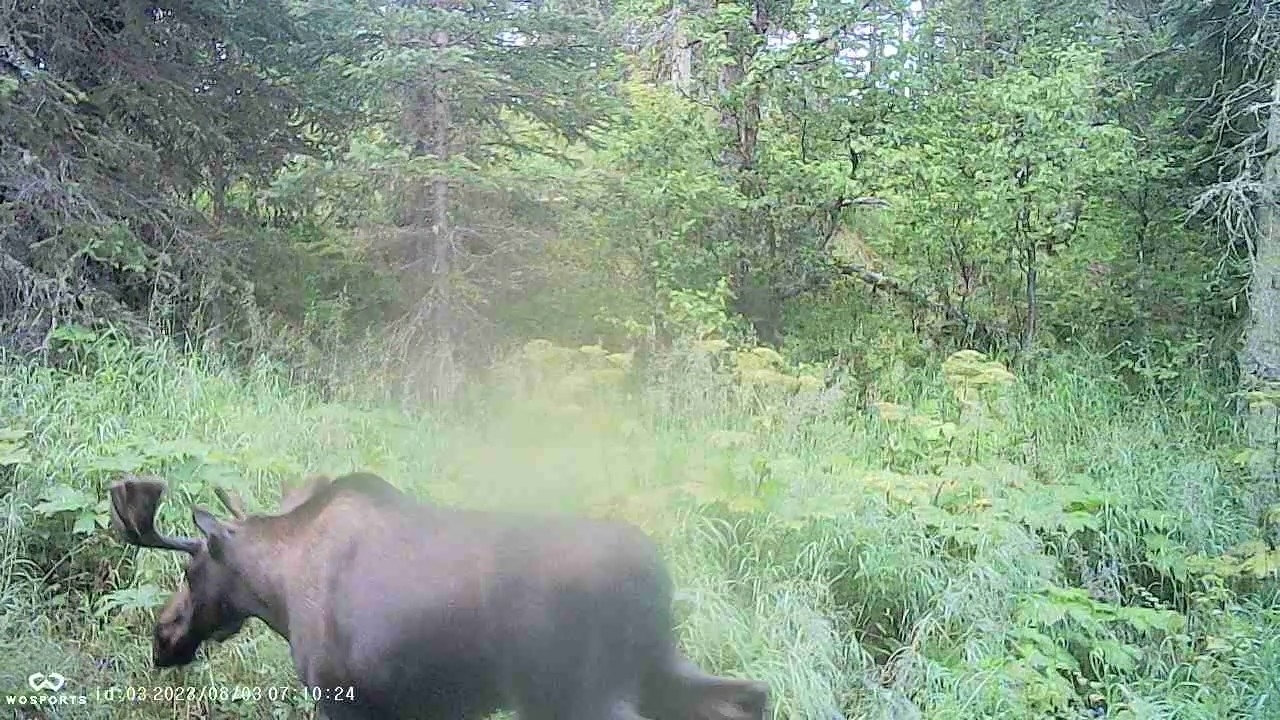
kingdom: Animalia
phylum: Chordata
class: Mammalia
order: Artiodactyla
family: Cervidae
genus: Alces
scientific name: Alces alces
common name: Moose
